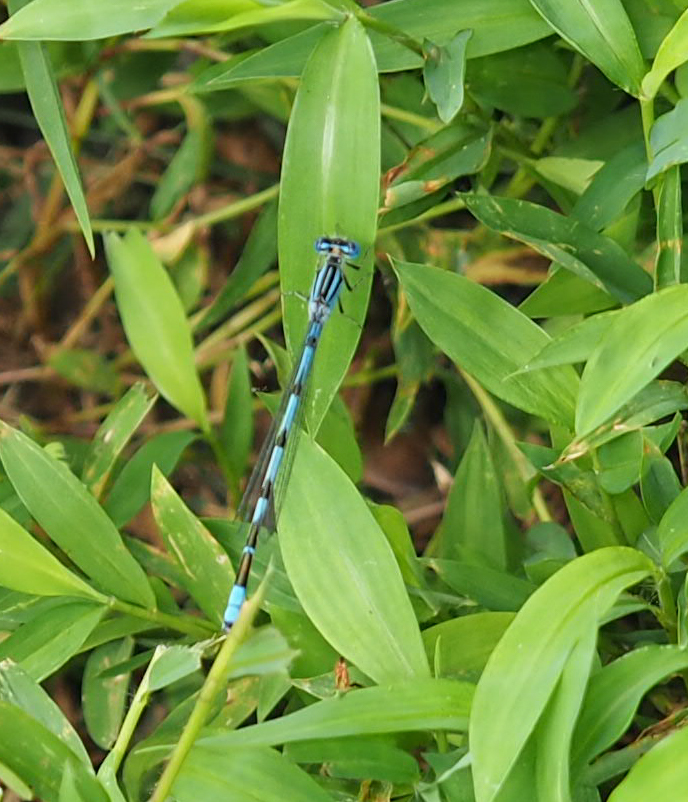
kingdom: Animalia
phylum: Arthropoda
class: Insecta
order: Odonata
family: Coenagrionidae
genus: Enallagma
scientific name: Enallagma durum
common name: Big bluet
